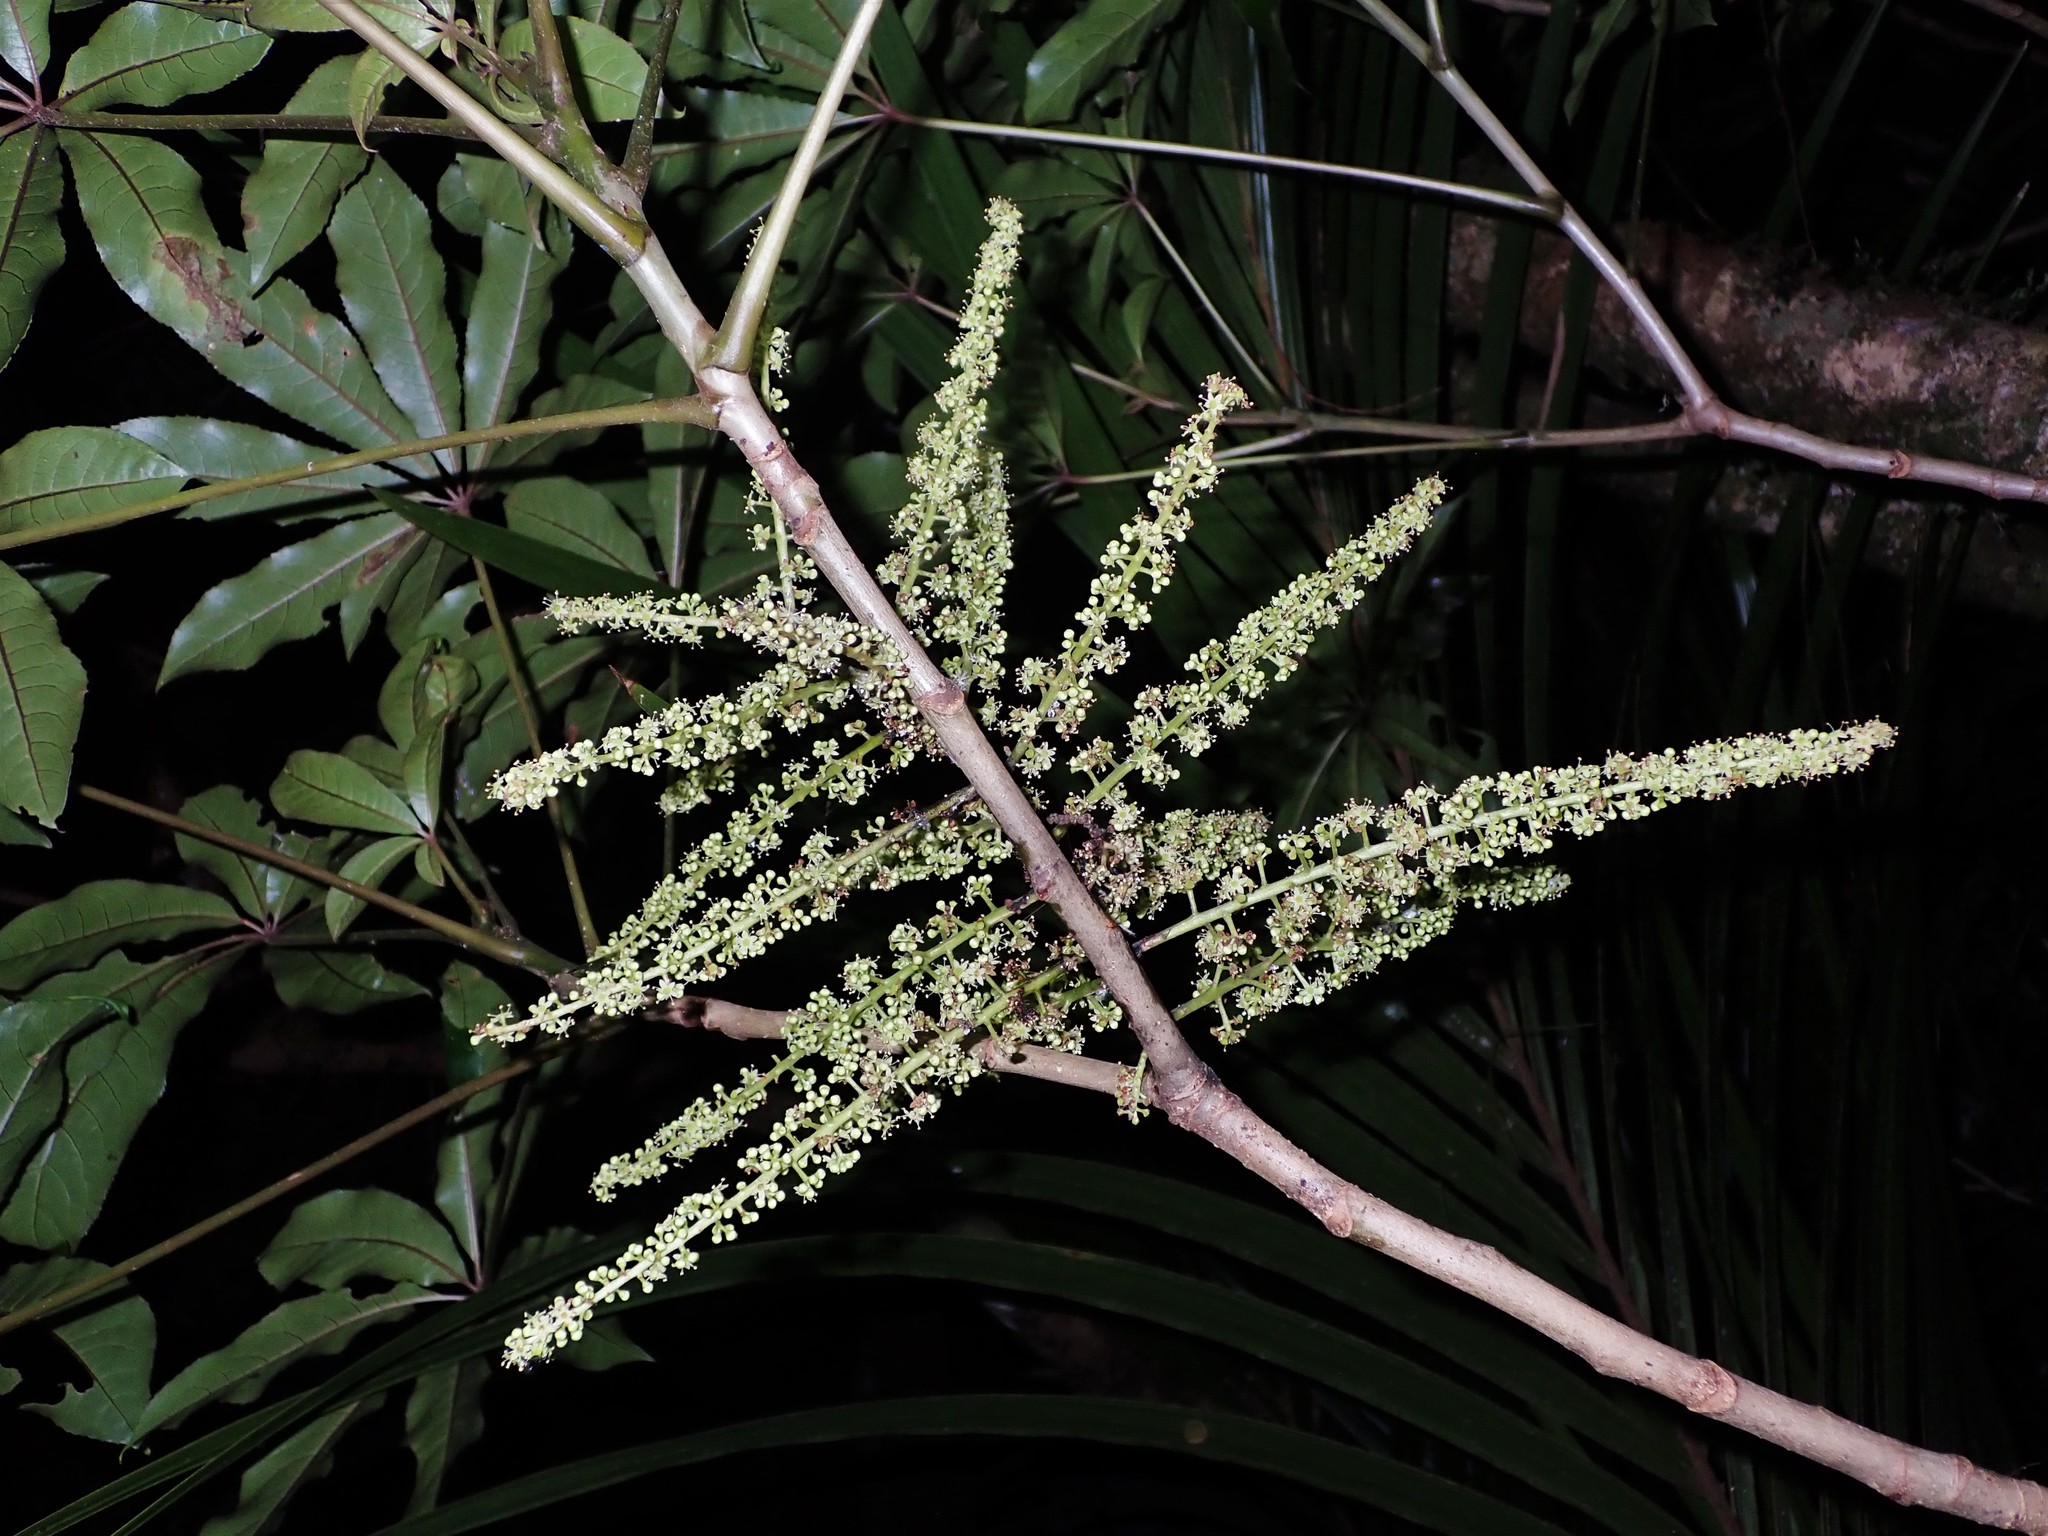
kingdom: Plantae
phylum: Tracheophyta
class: Magnoliopsida
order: Apiales
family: Araliaceae
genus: Schefflera
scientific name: Schefflera digitata
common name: Pate
